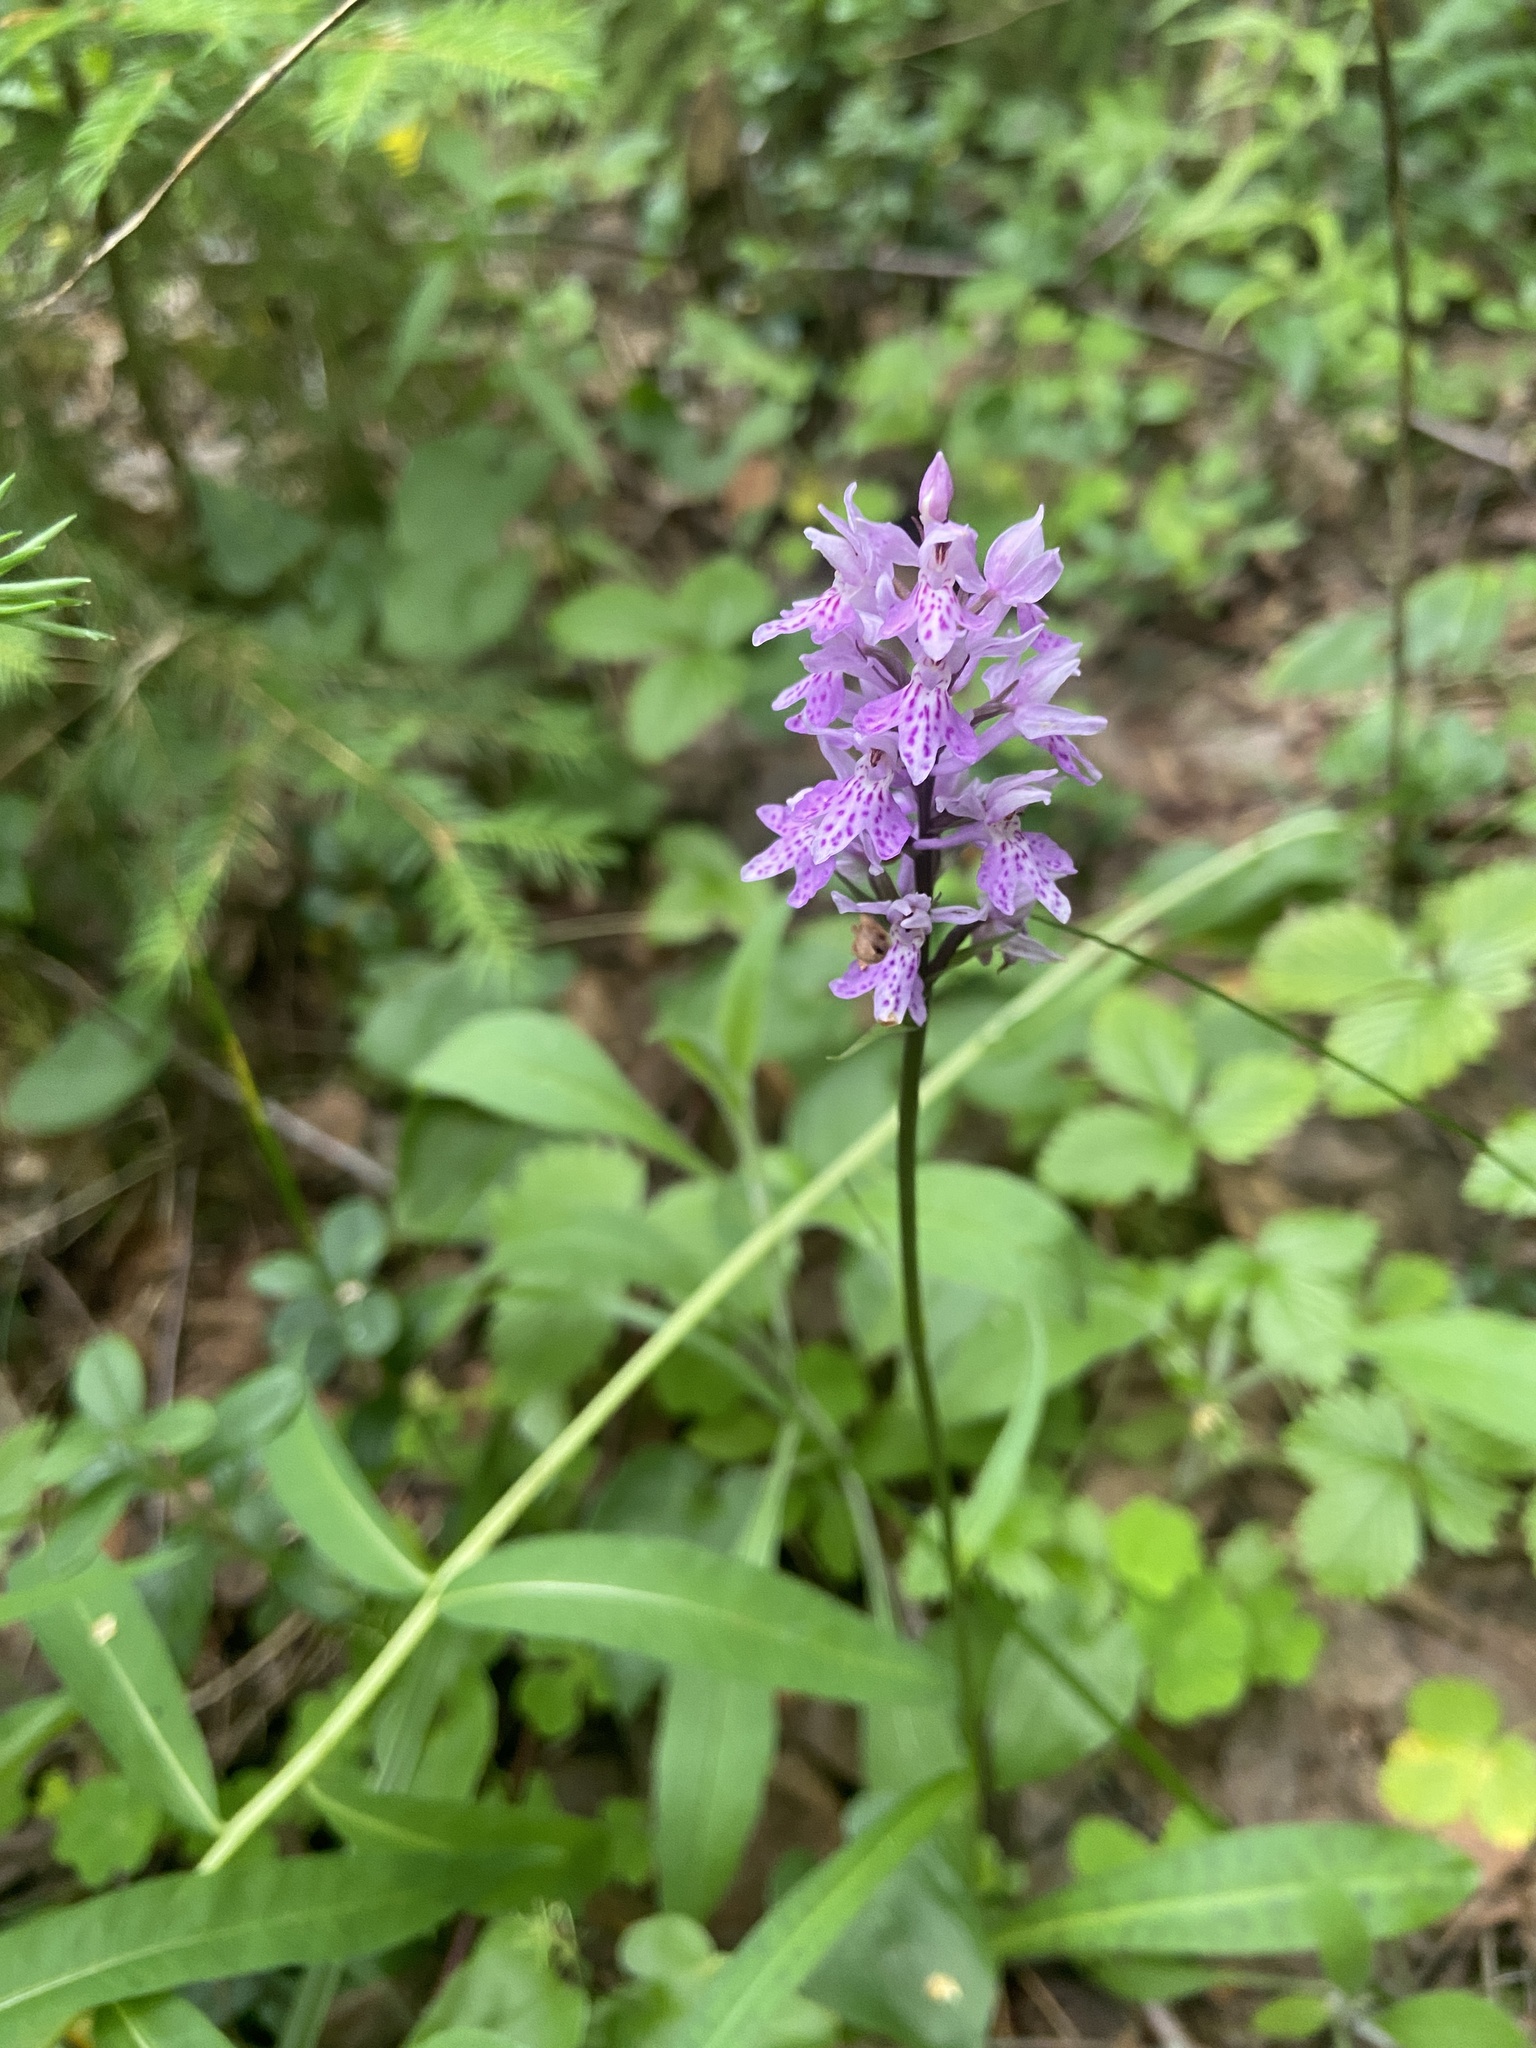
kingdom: Plantae
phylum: Tracheophyta
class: Liliopsida
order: Asparagales
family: Orchidaceae
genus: Dactylorhiza
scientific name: Dactylorhiza maculata
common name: Heath spotted-orchid
